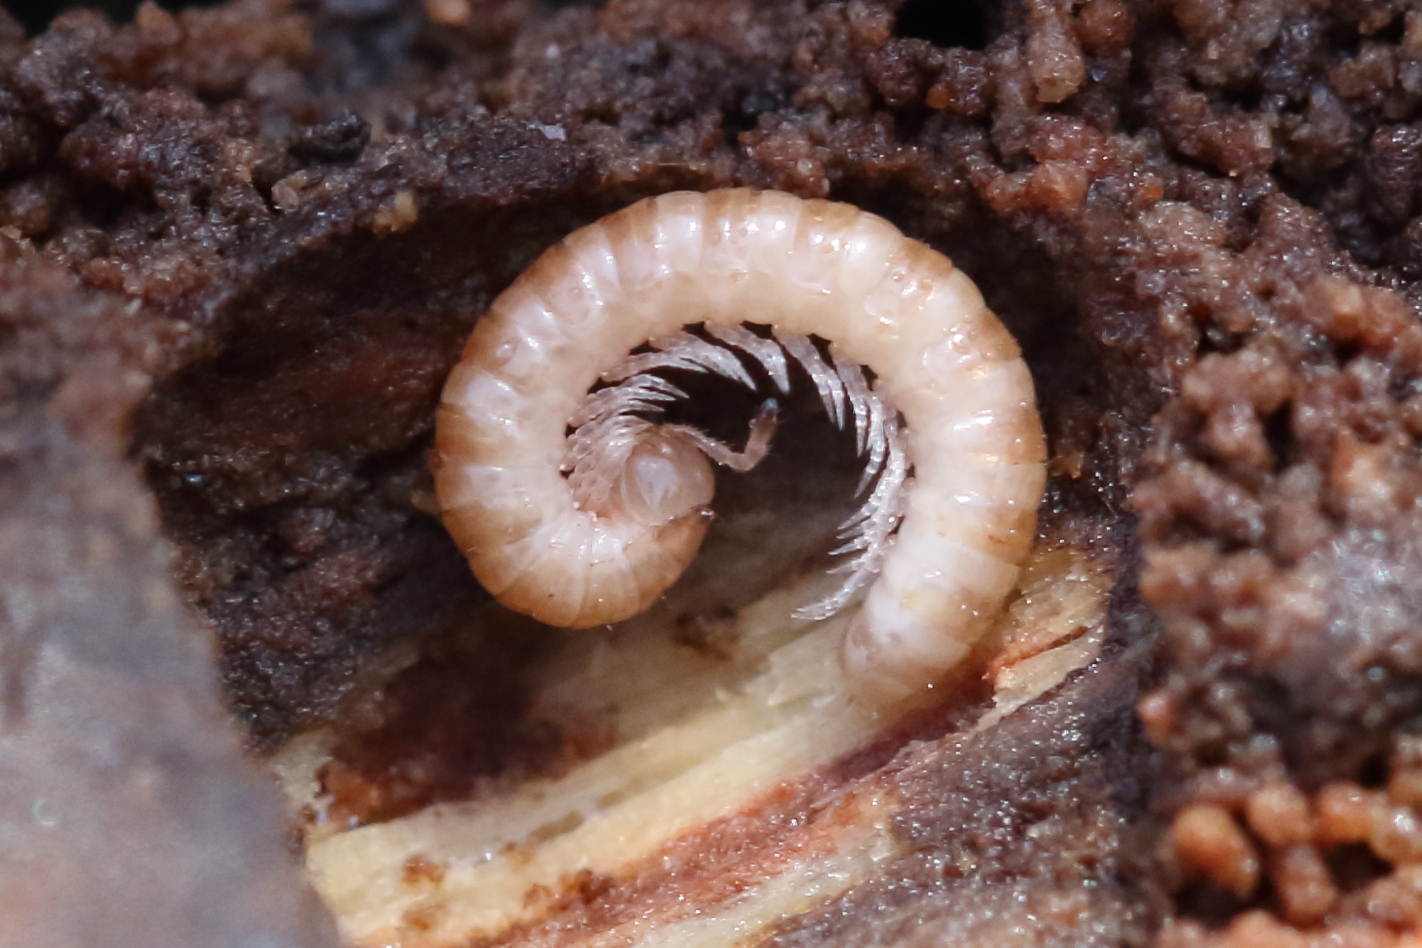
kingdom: Animalia
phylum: Arthropoda
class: Diplopoda
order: Polydesmida
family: Paradoxosomatidae
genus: Oxidus
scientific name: Oxidus gracilis
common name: Greenhouse millipede
